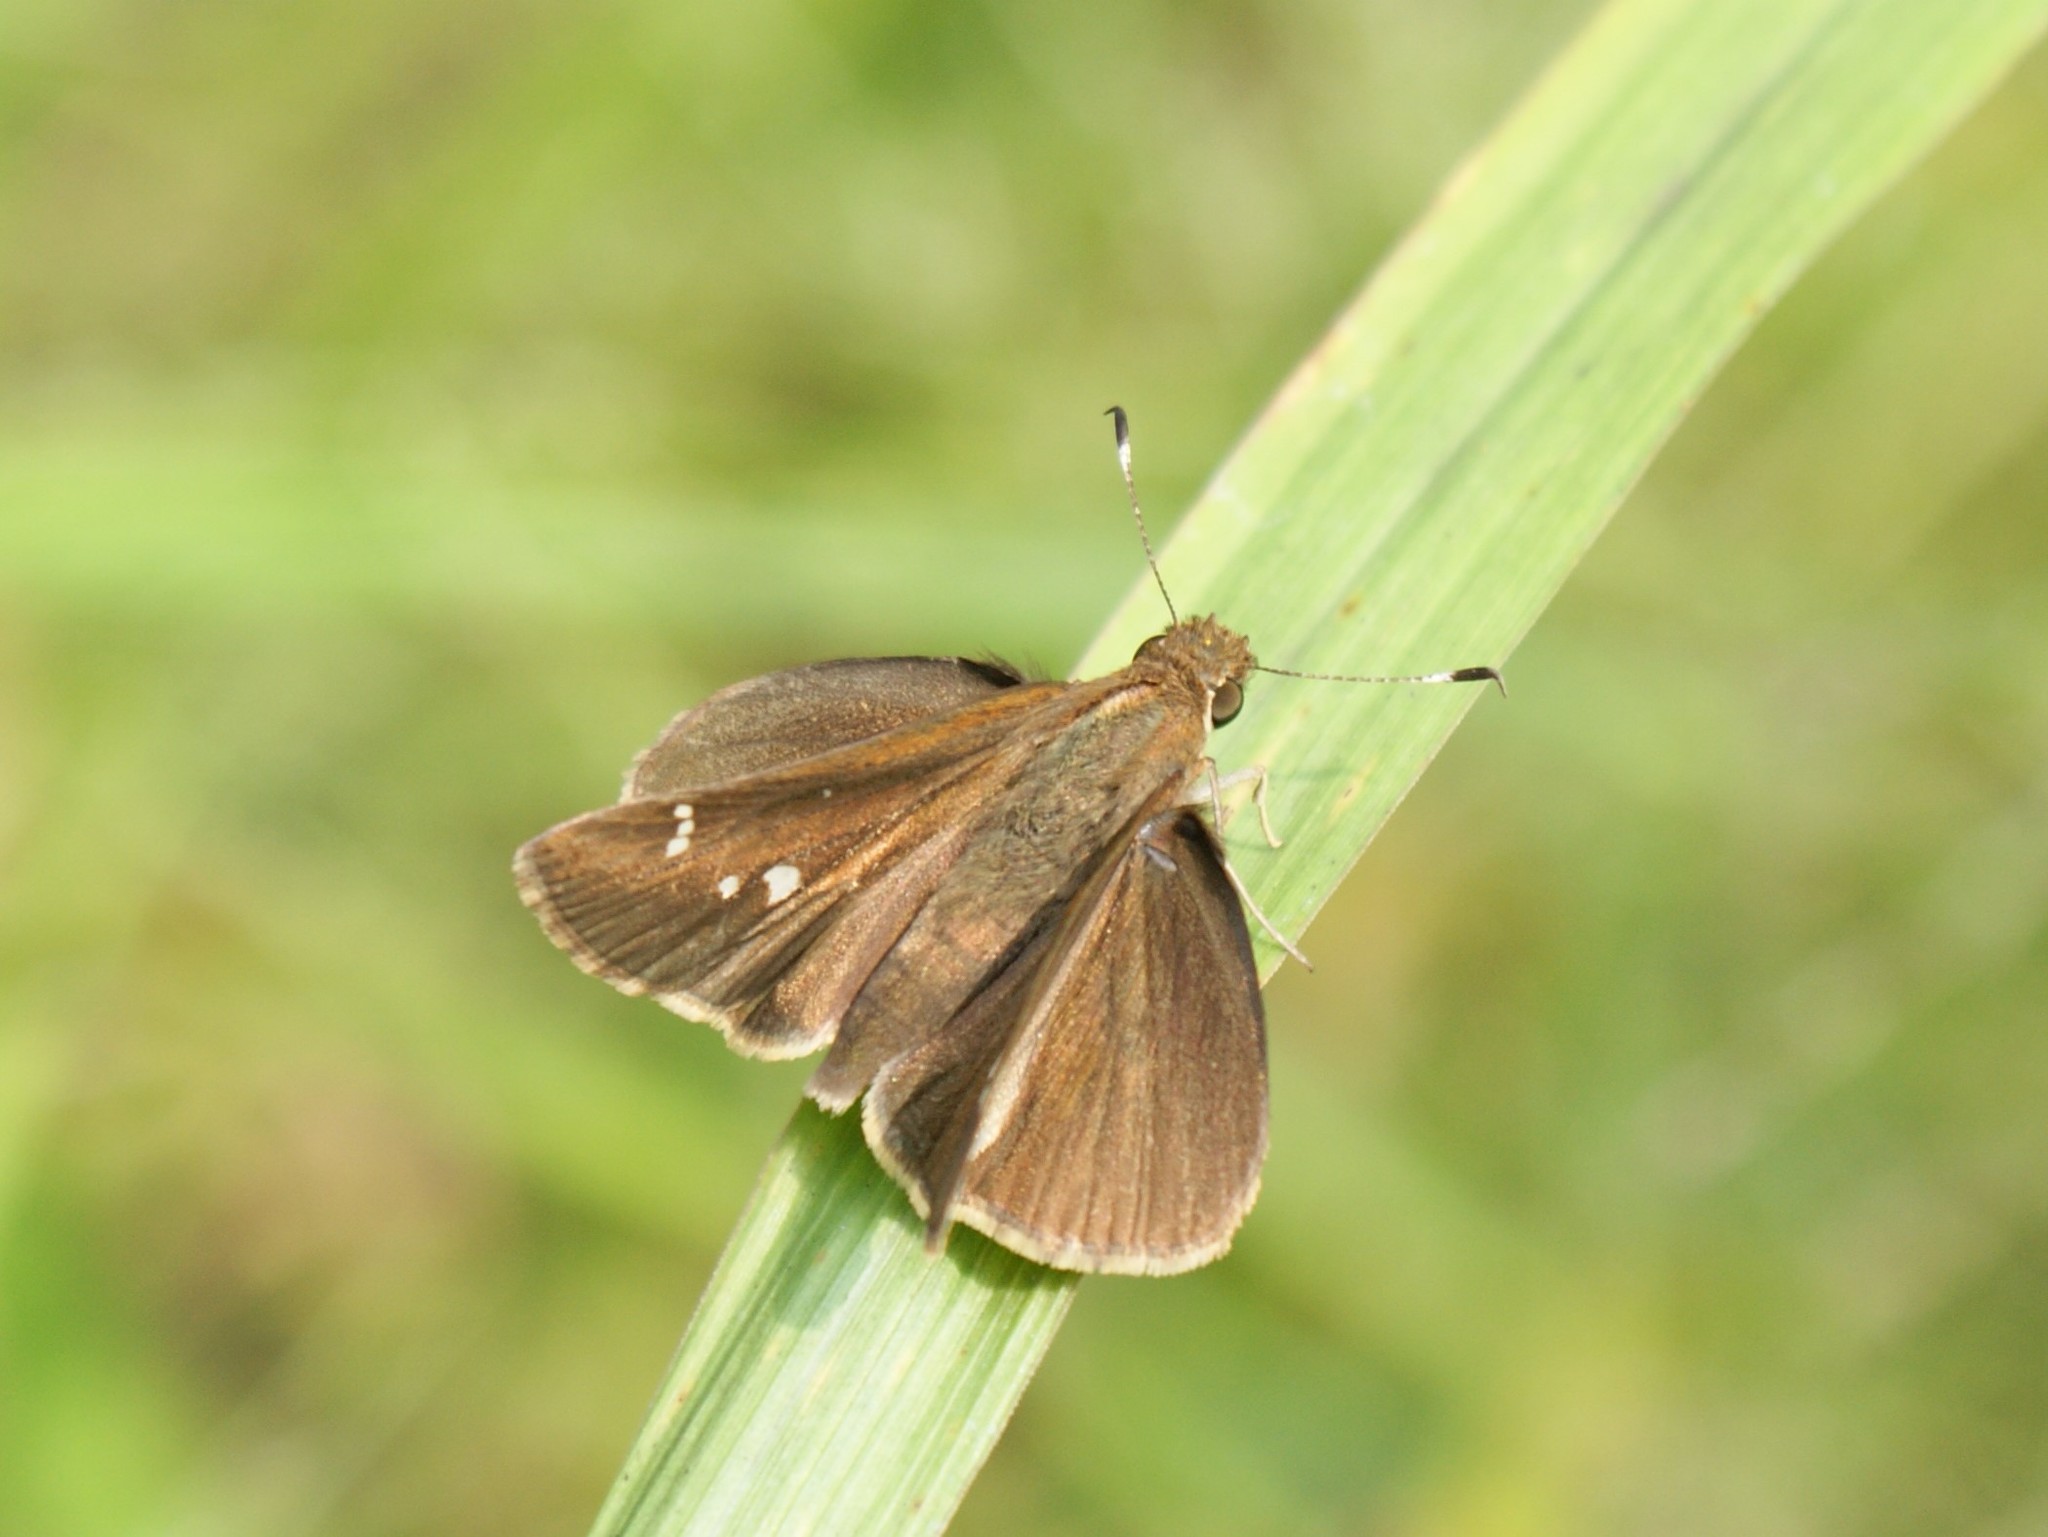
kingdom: Animalia
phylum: Arthropoda
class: Insecta
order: Lepidoptera
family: Hesperiidae
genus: Lerema
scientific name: Lerema accius
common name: Clouded skipper
